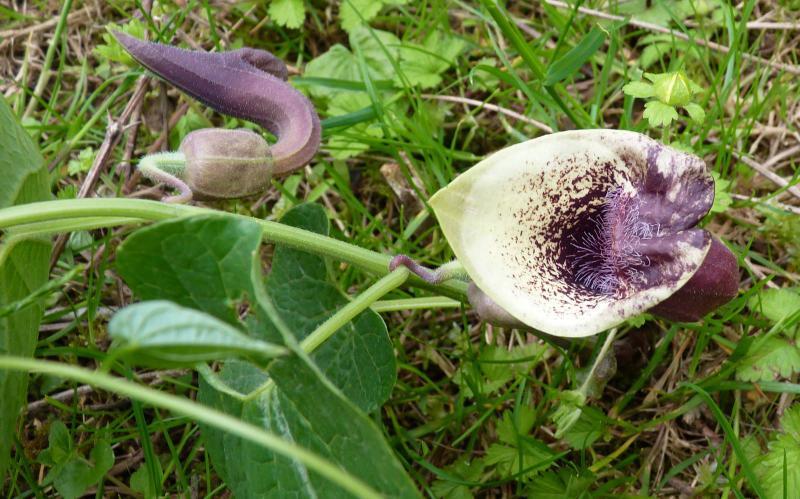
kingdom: Plantae
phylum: Tracheophyta
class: Magnoliopsida
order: Piperales
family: Aristolochiaceae
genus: Aristolochia
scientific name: Aristolochia pontica
